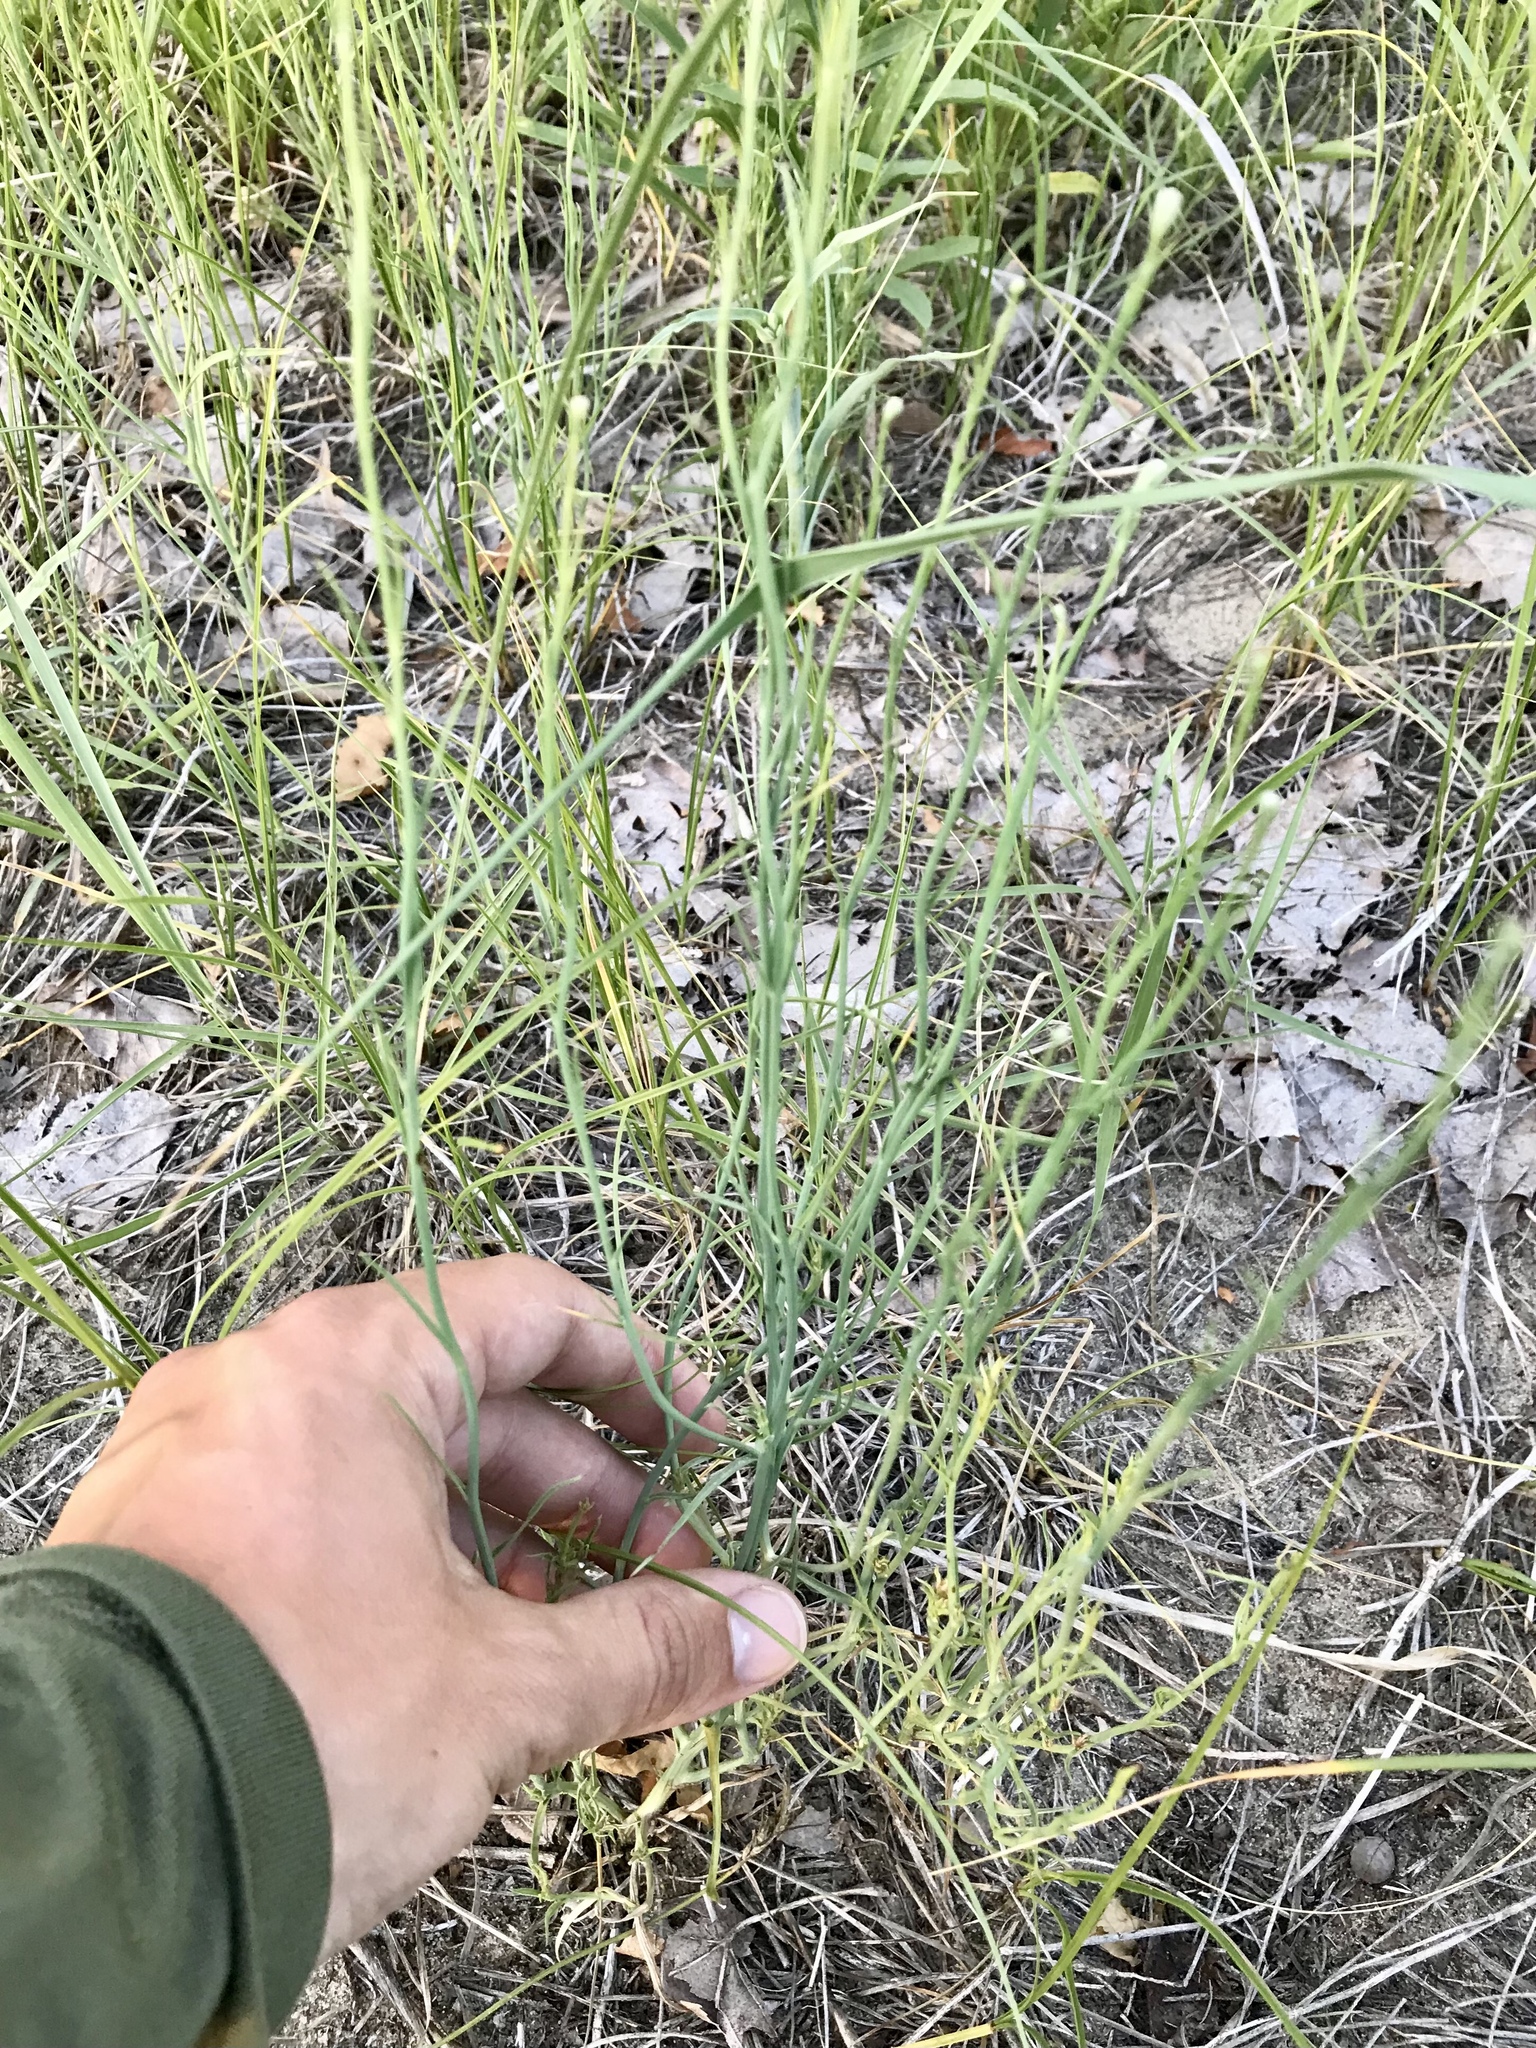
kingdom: Plantae
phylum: Tracheophyta
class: Magnoliopsida
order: Asterales
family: Asteraceae
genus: Lygodesmia
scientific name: Lygodesmia juncea
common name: Common skeletonweed
